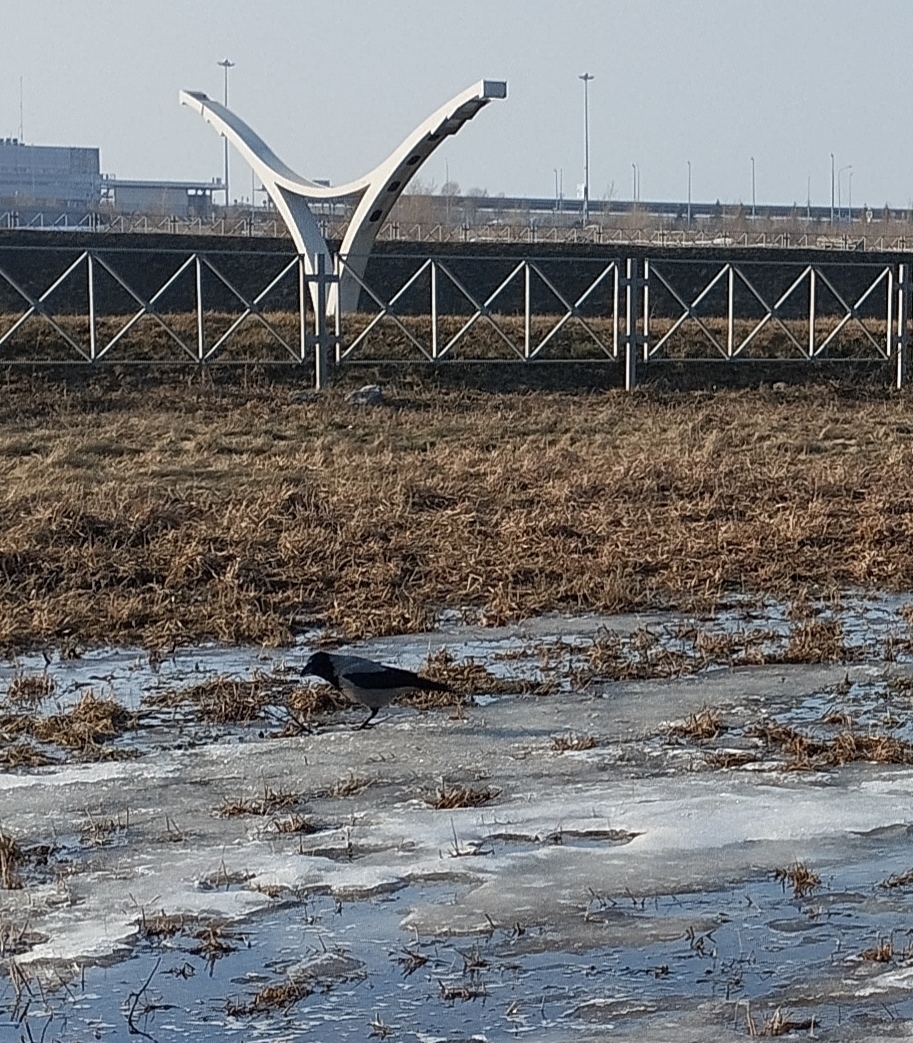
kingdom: Animalia
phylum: Chordata
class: Aves
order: Passeriformes
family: Corvidae
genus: Corvus
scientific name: Corvus cornix
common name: Hooded crow
